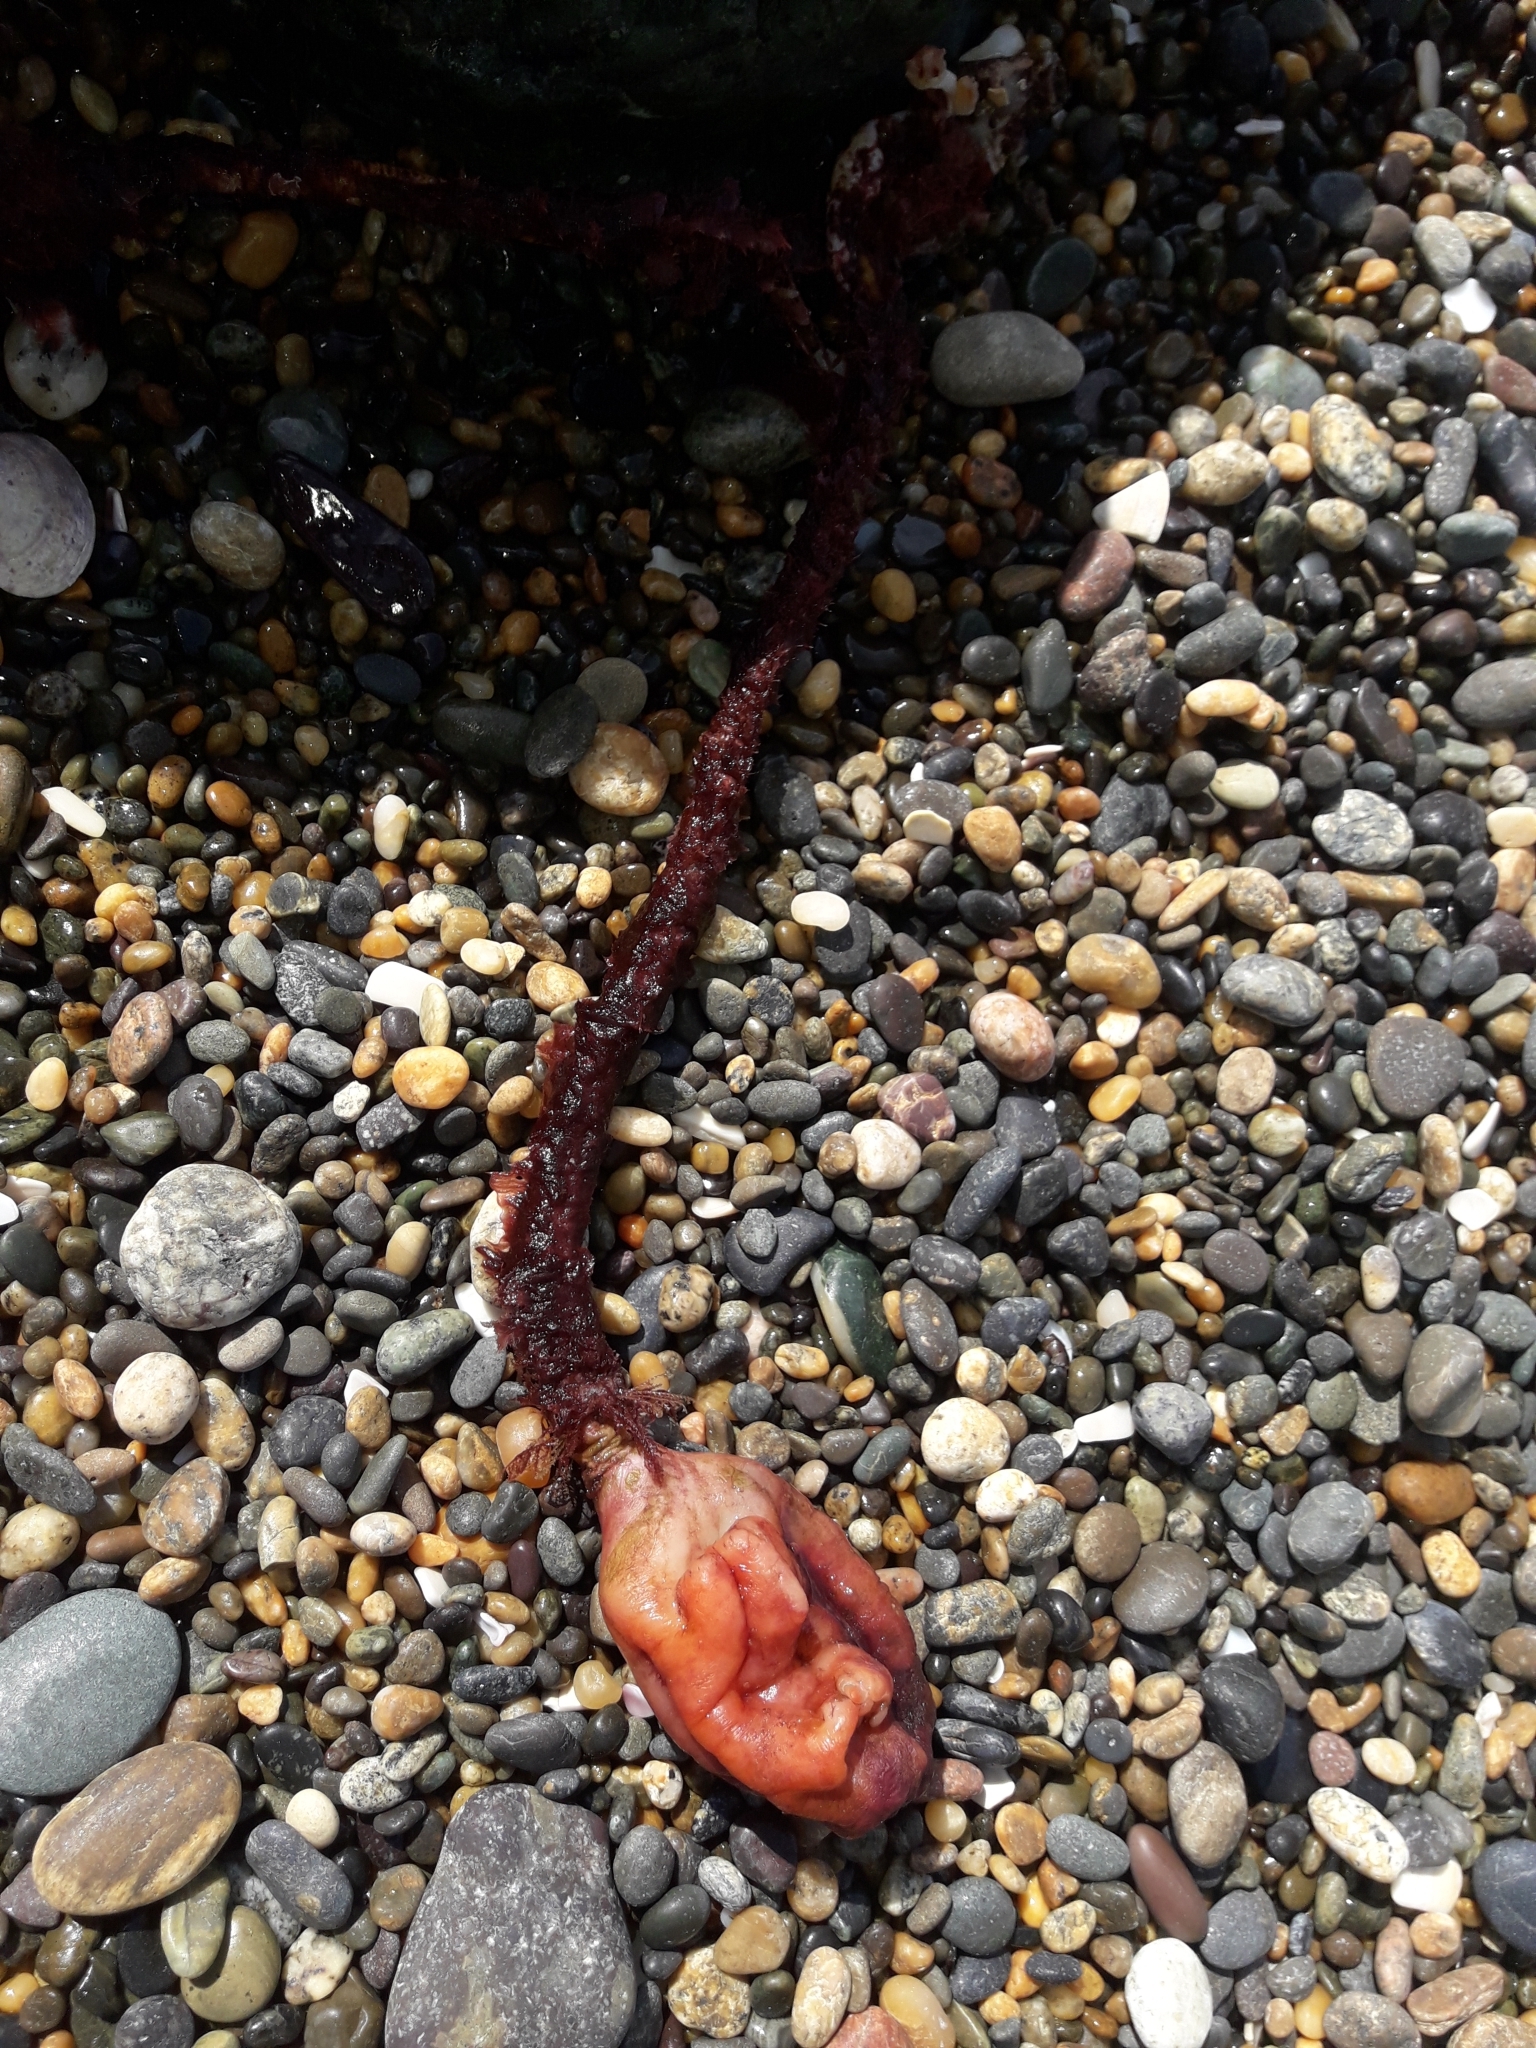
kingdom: Animalia
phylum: Chordata
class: Ascidiacea
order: Stolidobranchia
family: Pyuridae
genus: Pyura
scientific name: Pyura pachydermatina
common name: Sea tulip
